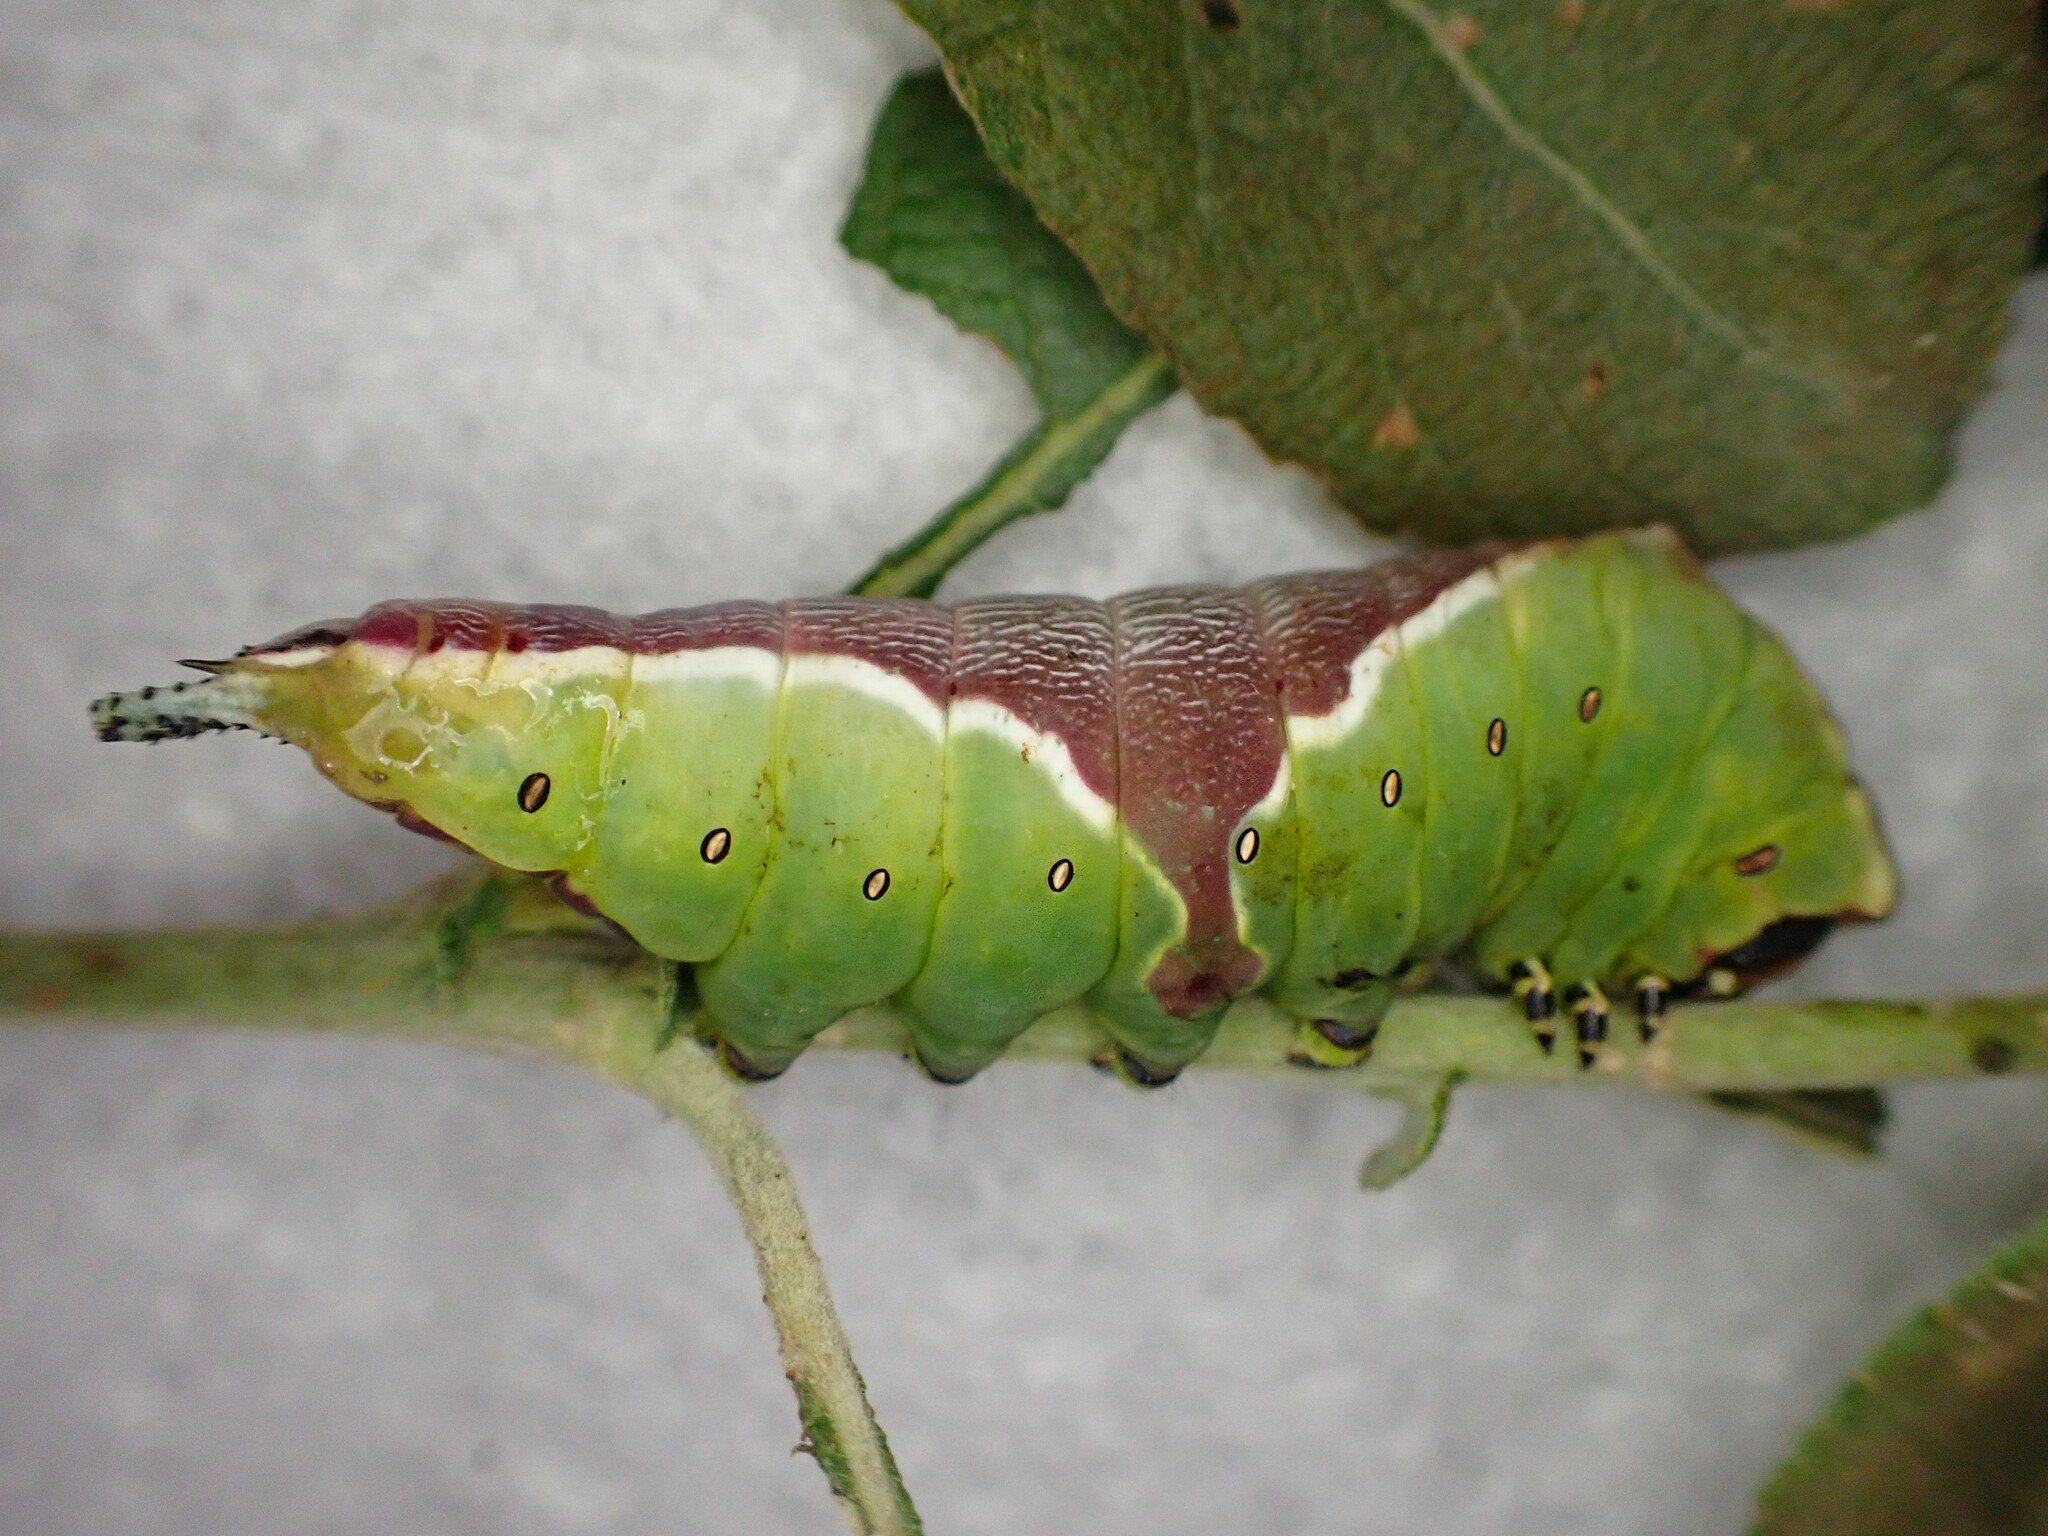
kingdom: Animalia
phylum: Arthropoda
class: Insecta
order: Lepidoptera
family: Notodontidae
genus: Cerura
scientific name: Cerura vinula
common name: Puss moth
